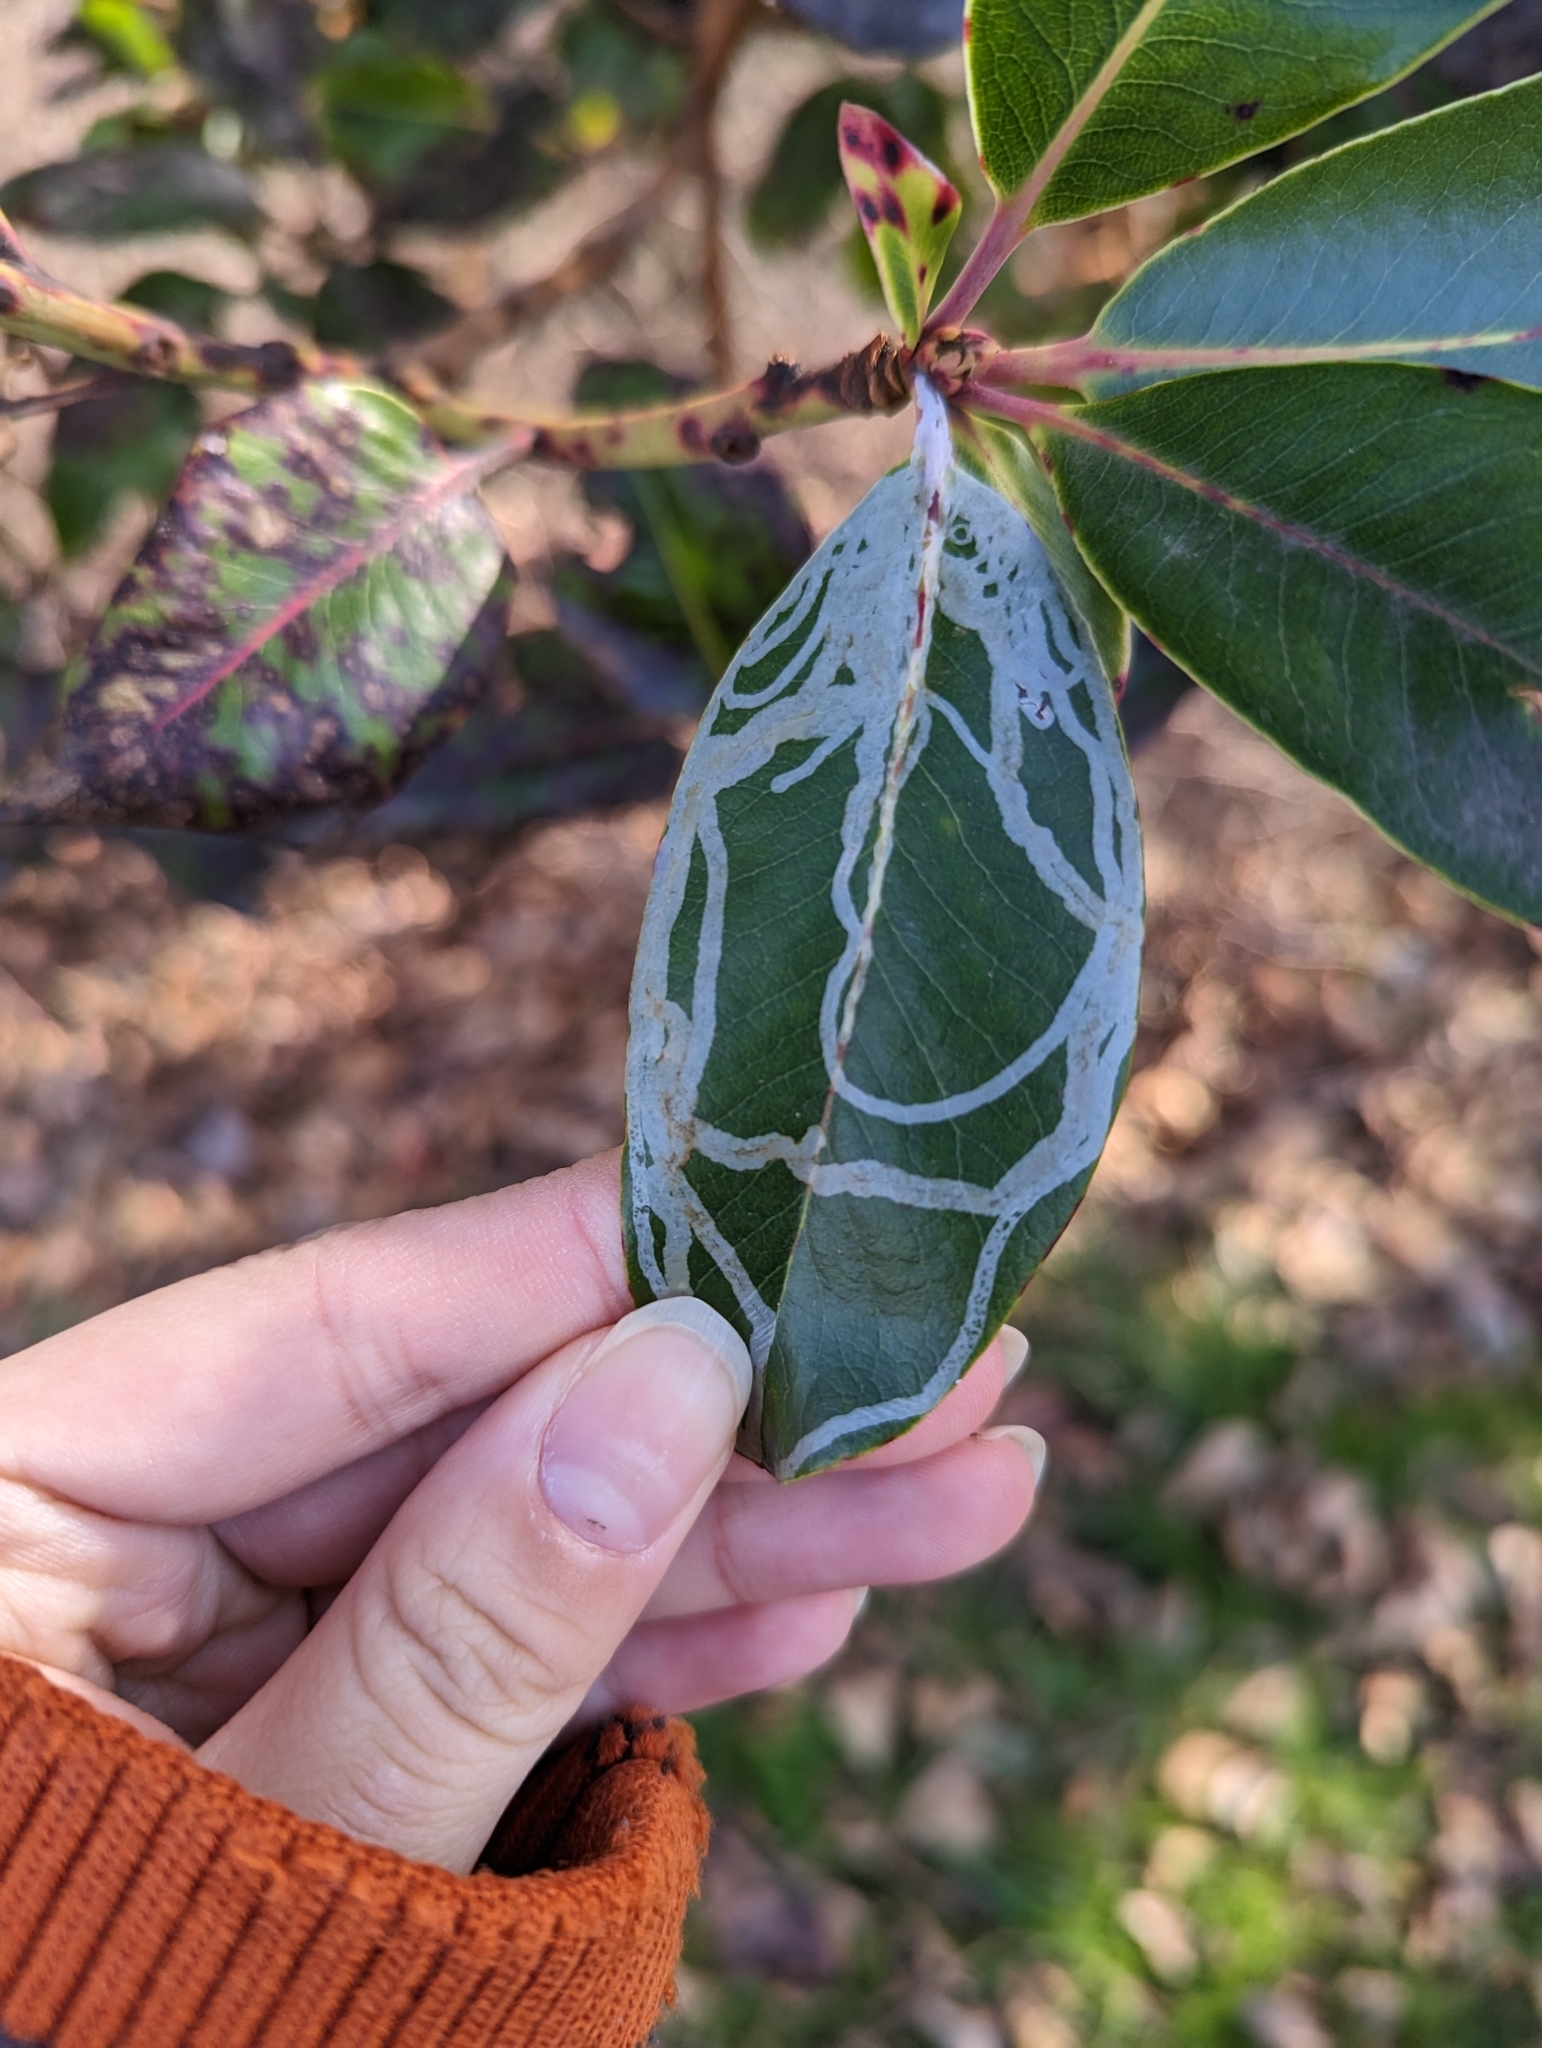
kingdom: Animalia
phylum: Arthropoda
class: Insecta
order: Lepidoptera
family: Gracillariidae
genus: Marmara
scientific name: Marmara arbutiella
